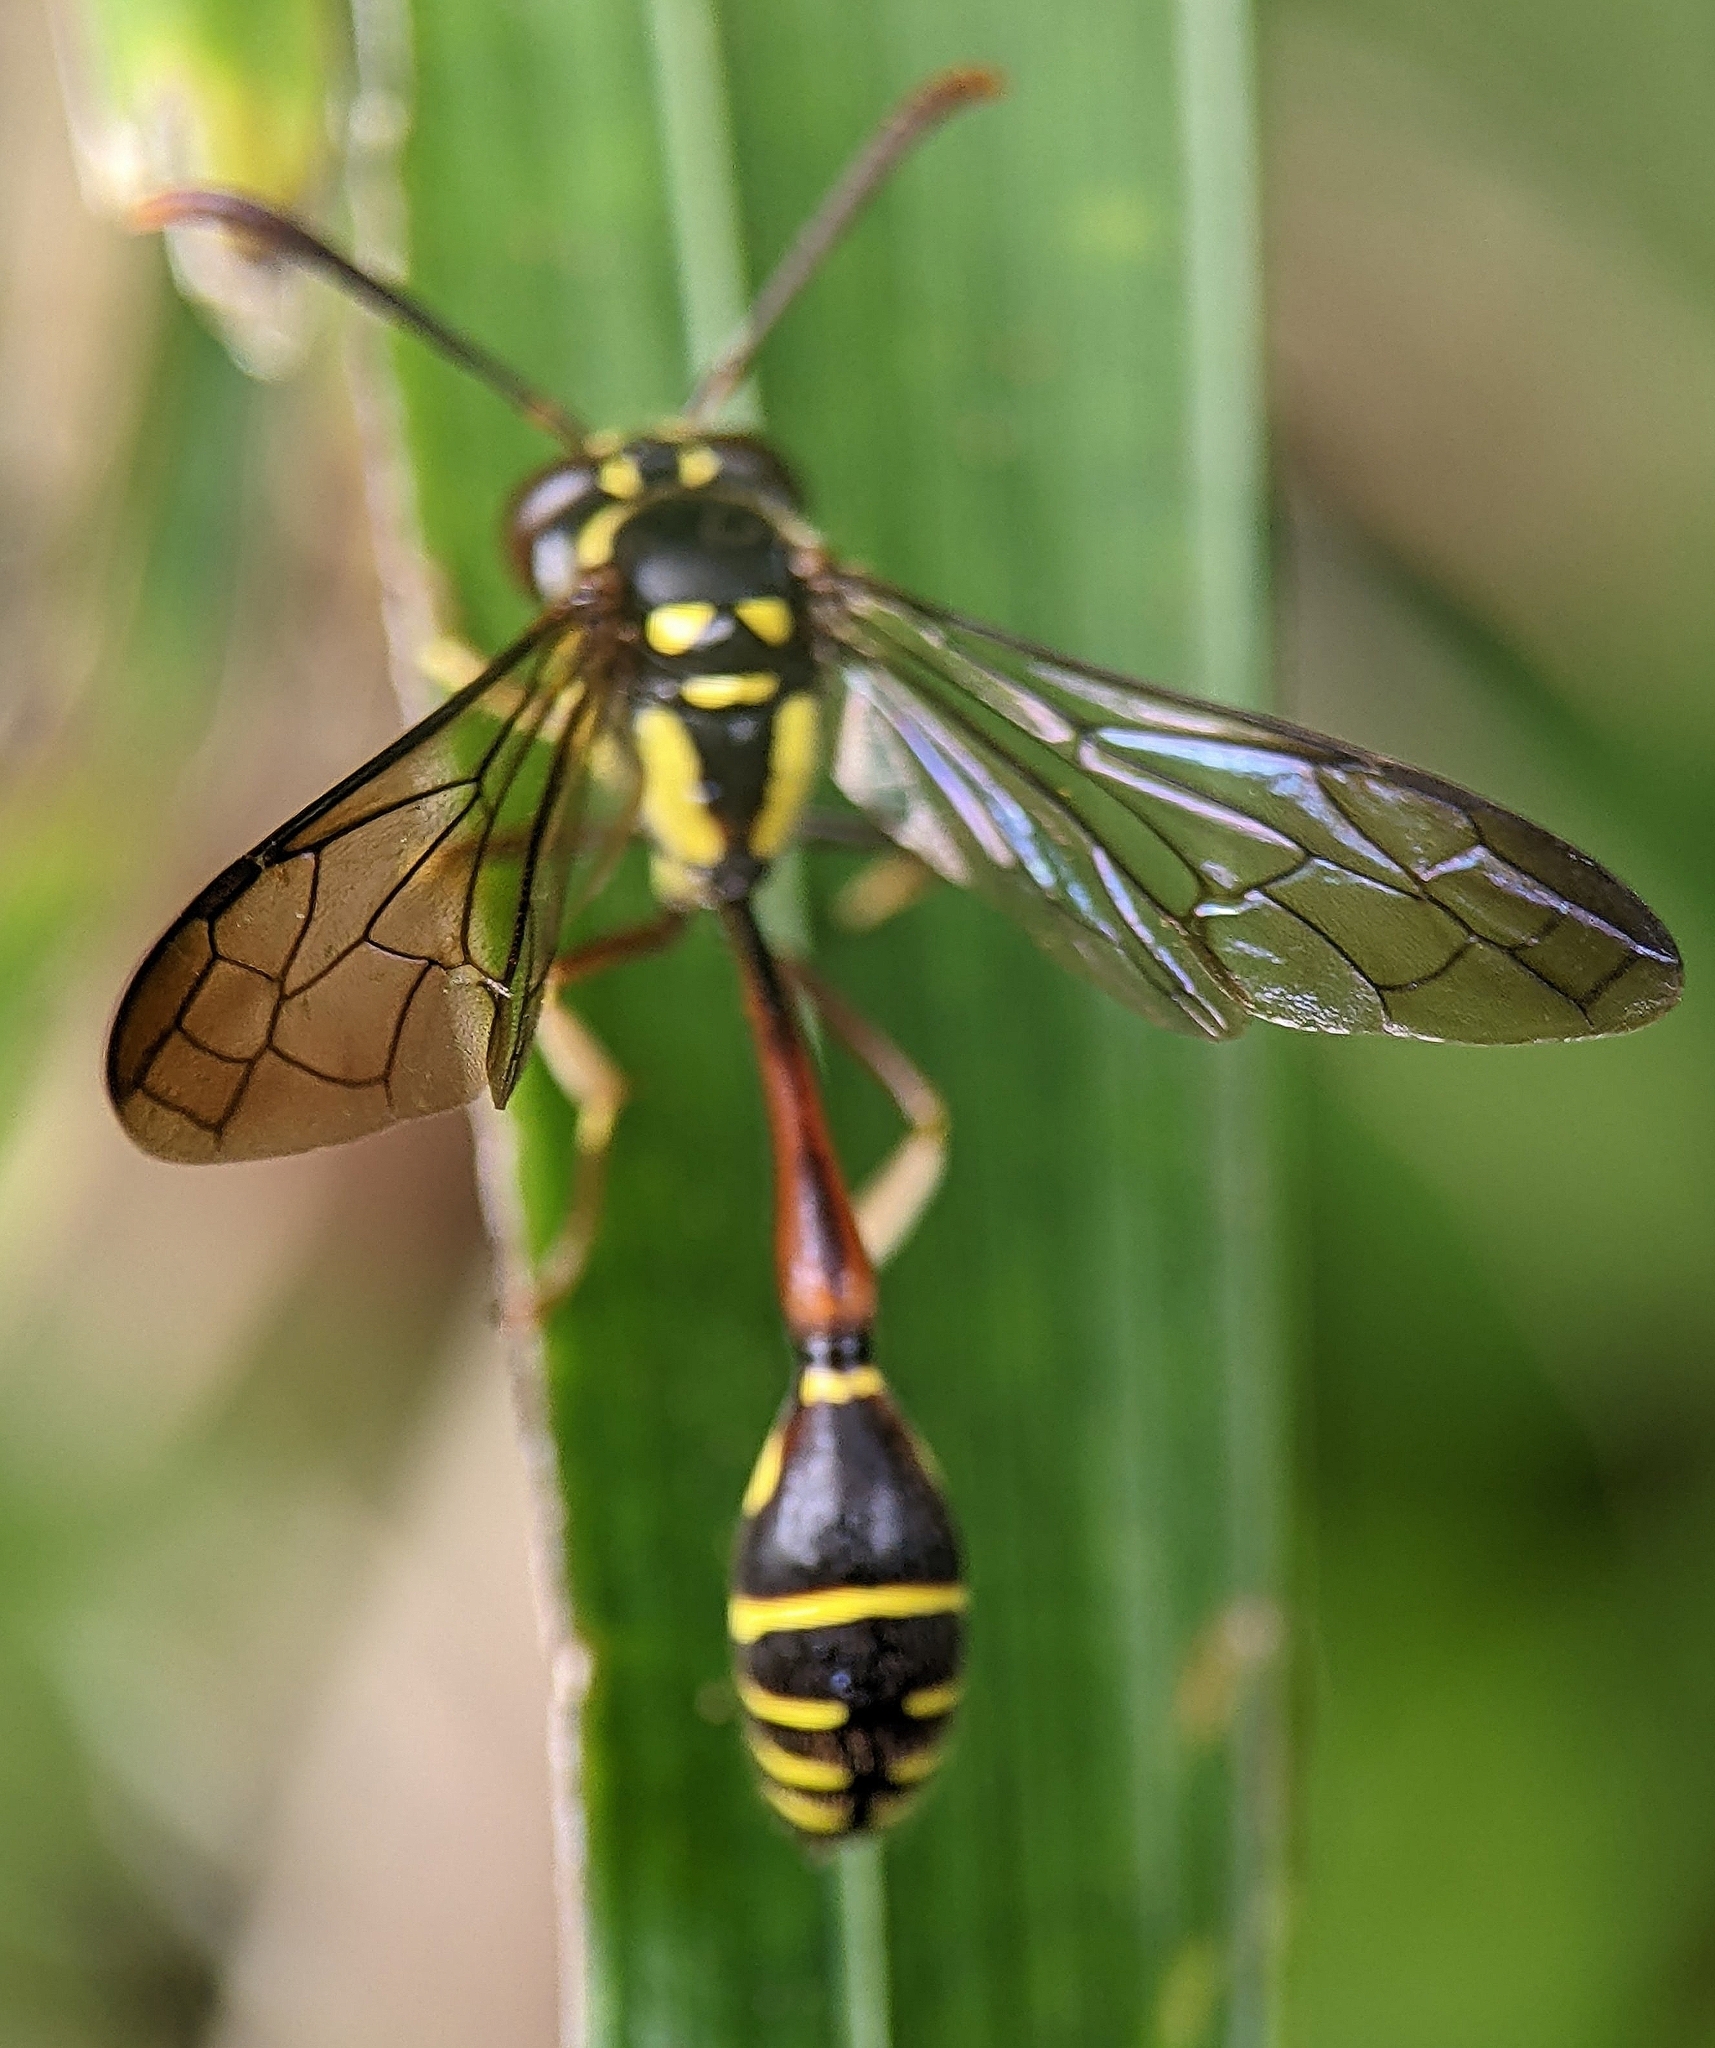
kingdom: Animalia
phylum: Arthropoda
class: Insecta
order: Hymenoptera
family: Vespidae
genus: Eustenogaster
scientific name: Eustenogaster micans
